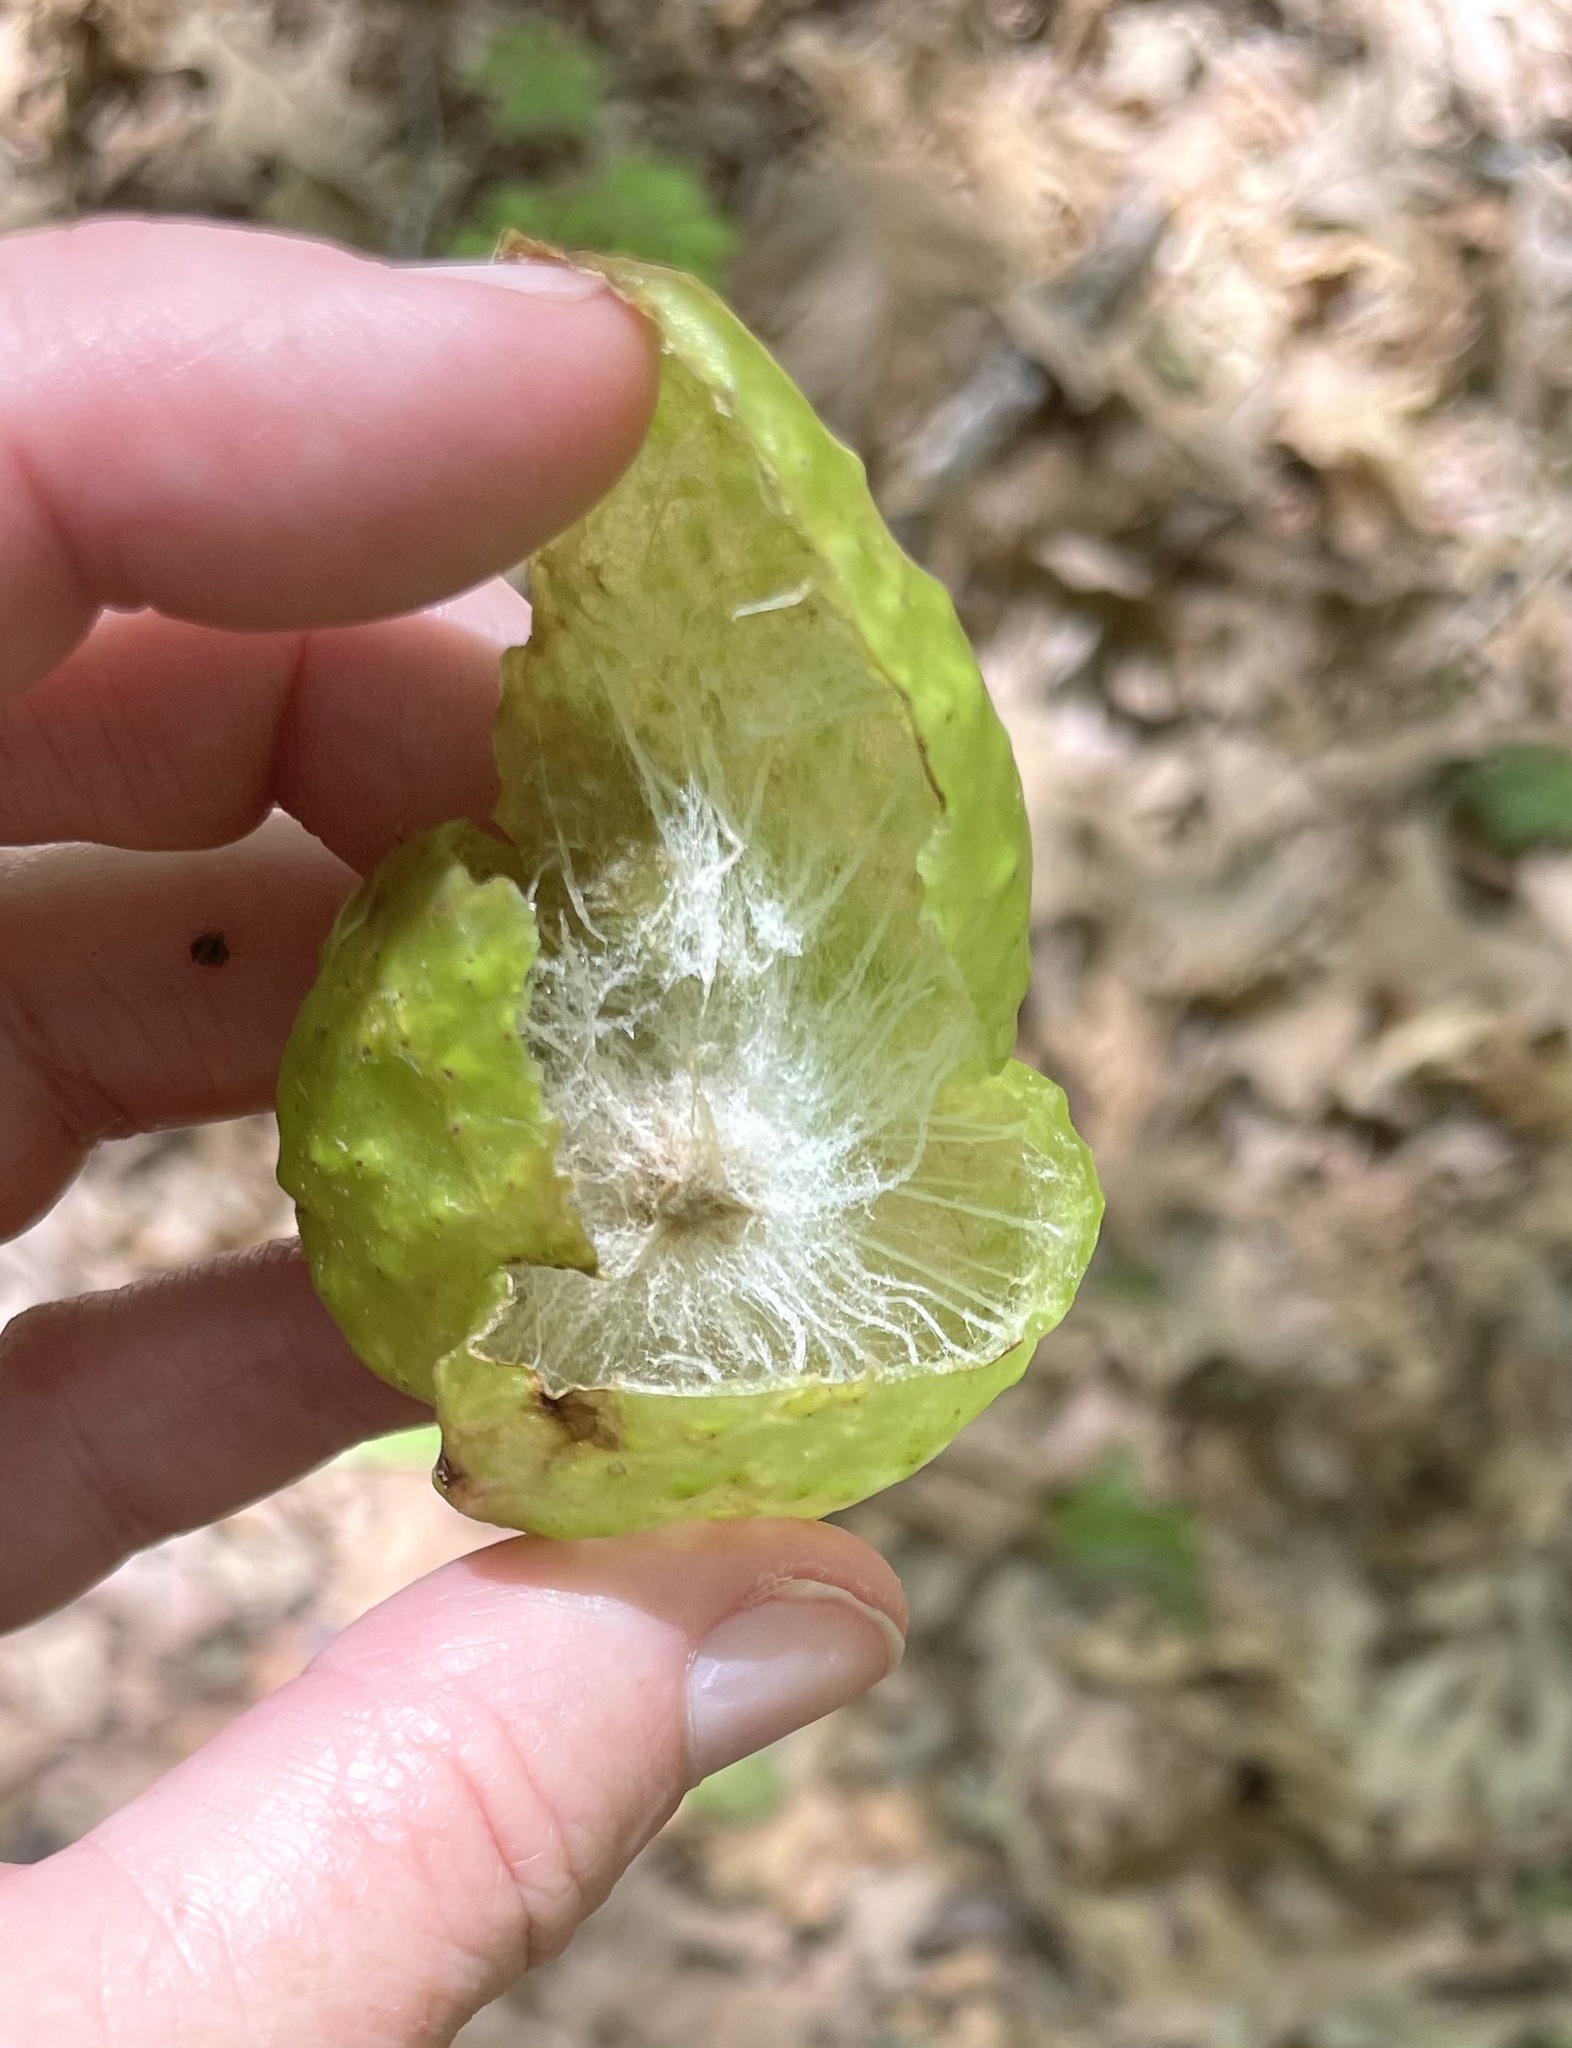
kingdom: Animalia
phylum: Arthropoda
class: Insecta
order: Hymenoptera
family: Cynipidae
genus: Amphibolips
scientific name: Amphibolips
